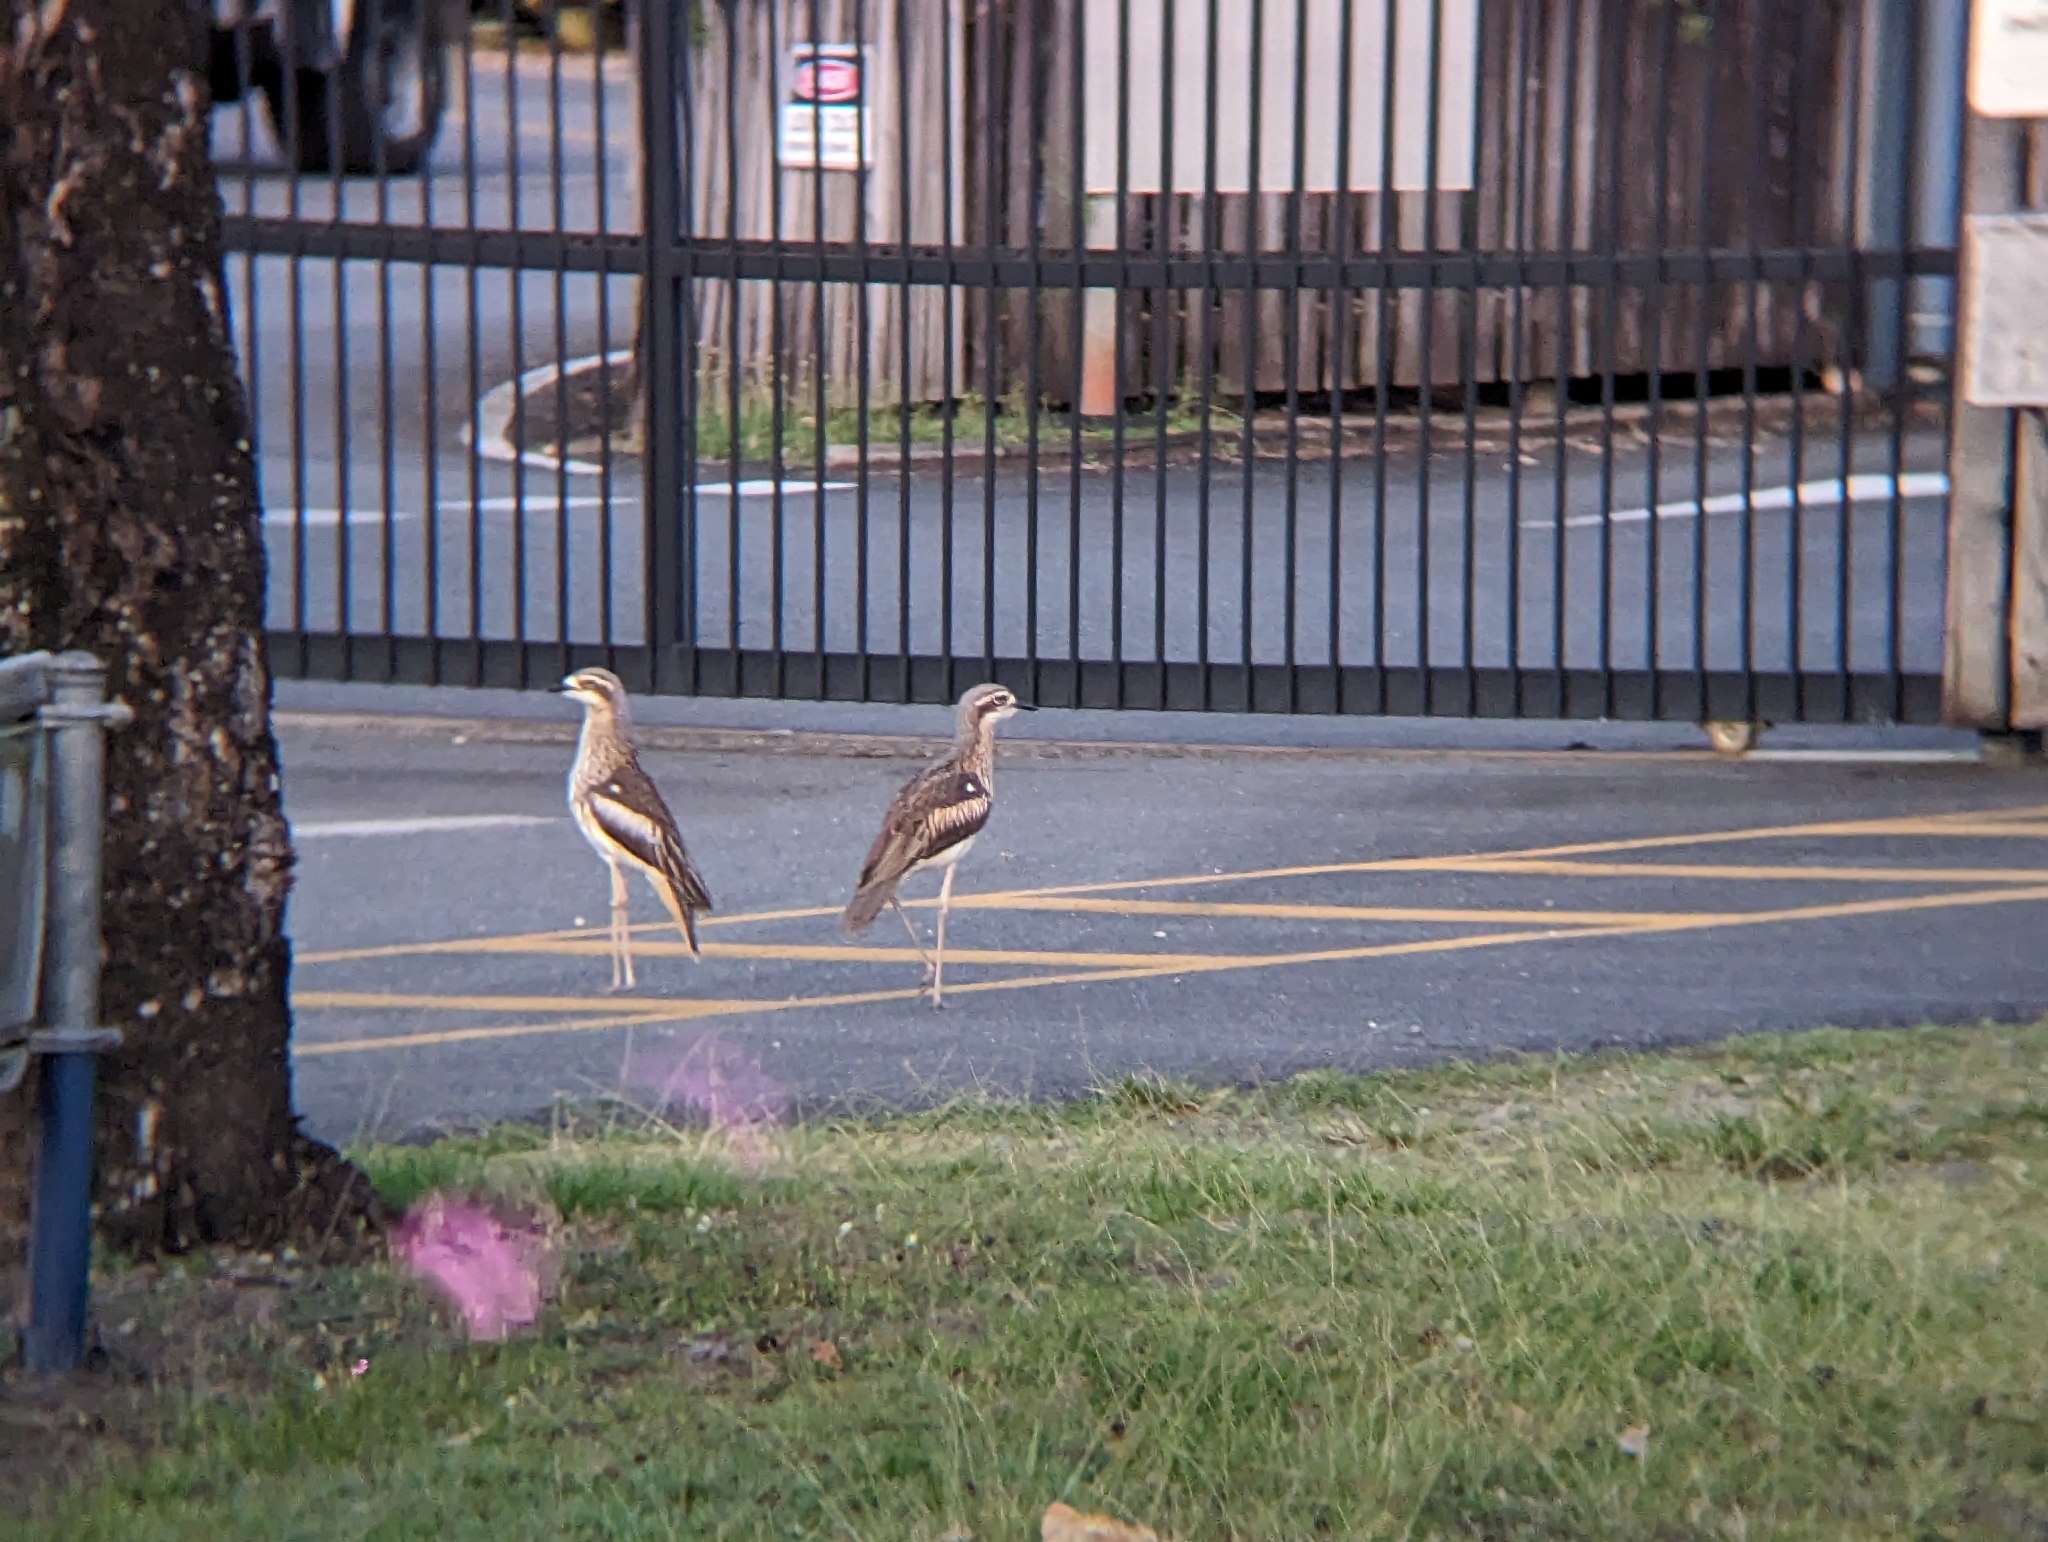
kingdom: Animalia
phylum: Chordata
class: Aves
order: Charadriiformes
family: Burhinidae
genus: Burhinus
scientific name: Burhinus grallarius
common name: Bush stone-curlew
